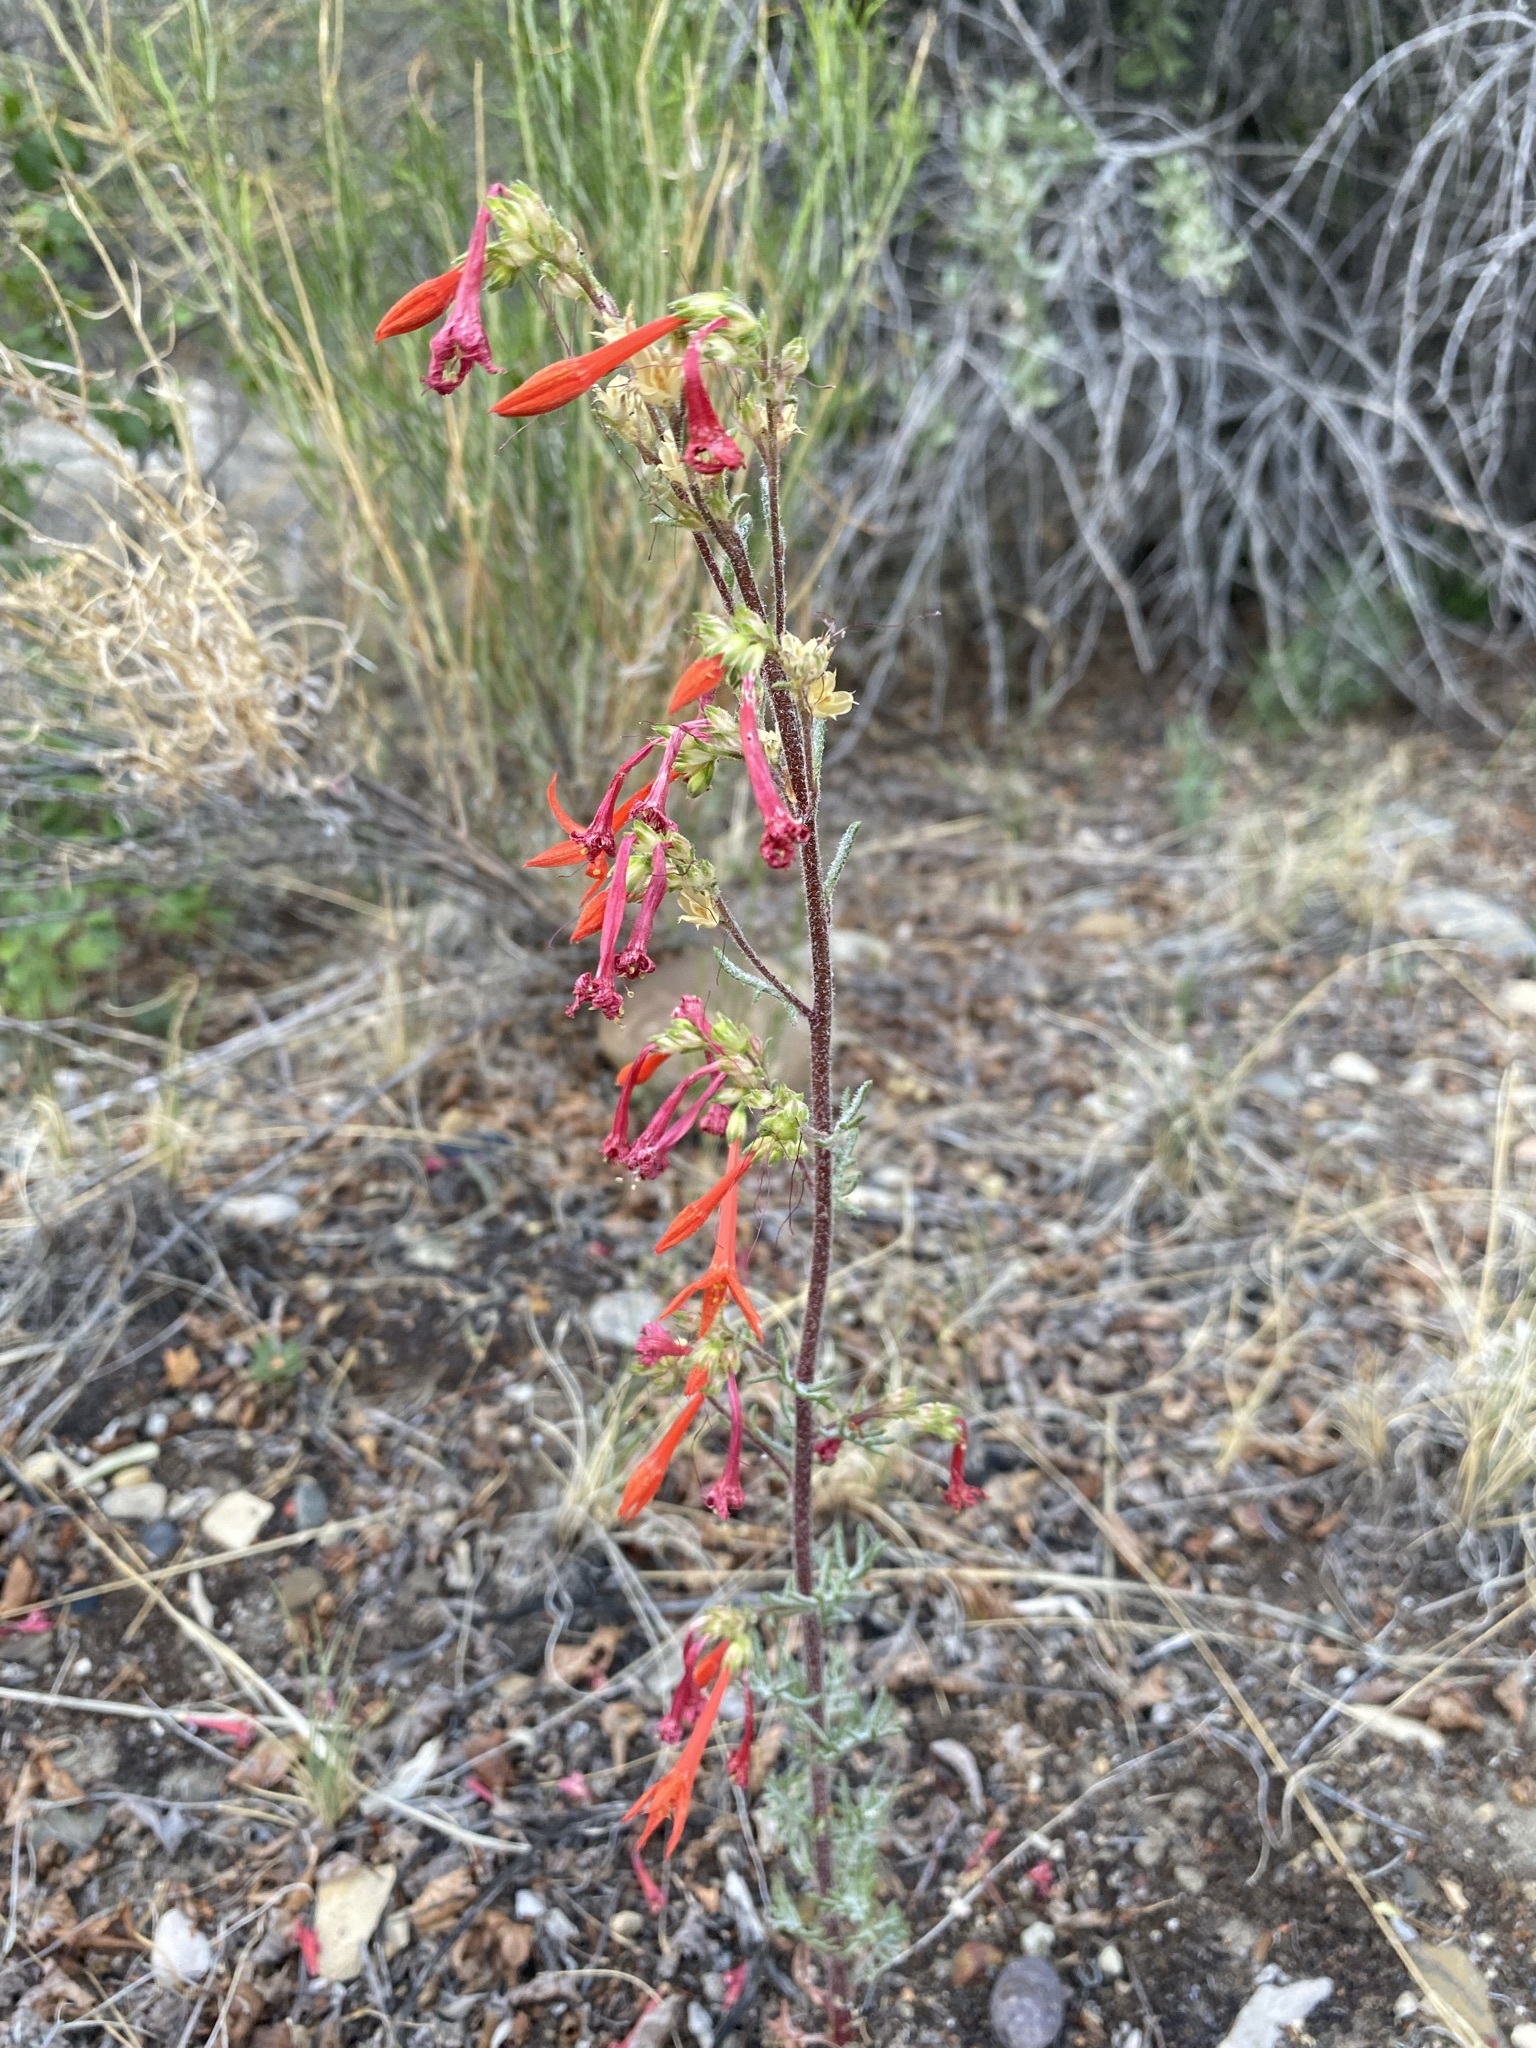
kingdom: Plantae
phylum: Tracheophyta
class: Magnoliopsida
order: Ericales
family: Polemoniaceae
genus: Ipomopsis
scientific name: Ipomopsis aggregata
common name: Scarlet gilia
